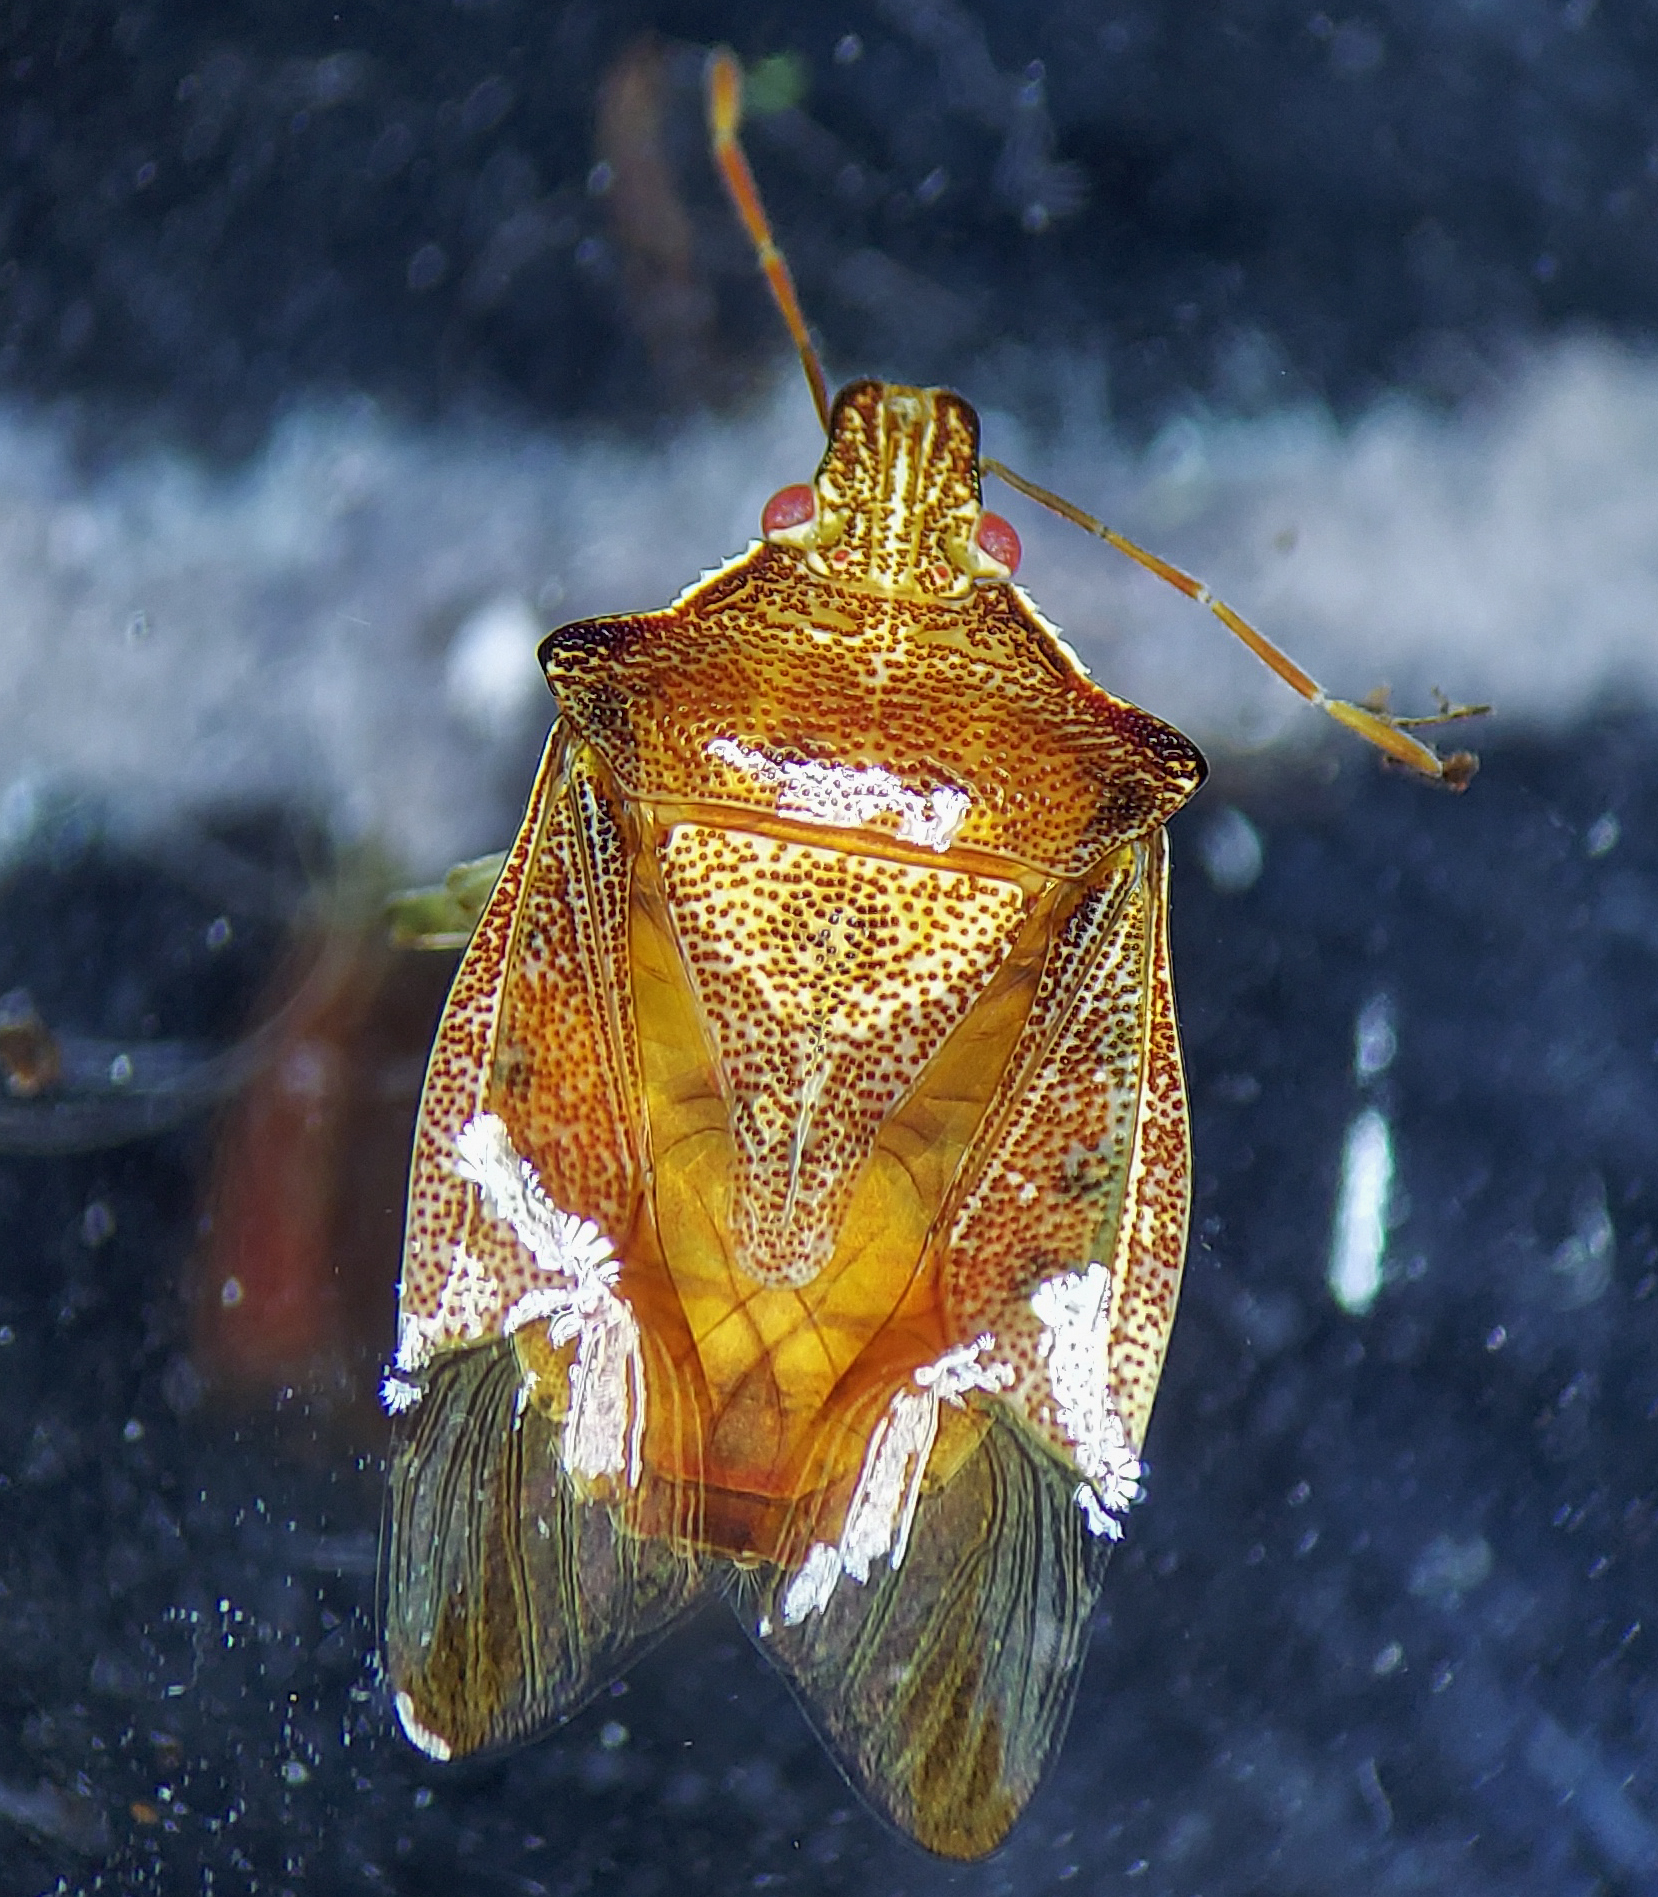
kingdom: Animalia
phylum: Arthropoda
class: Insecta
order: Hemiptera
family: Pentatomidae
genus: Podisus
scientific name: Podisus brevispinus
